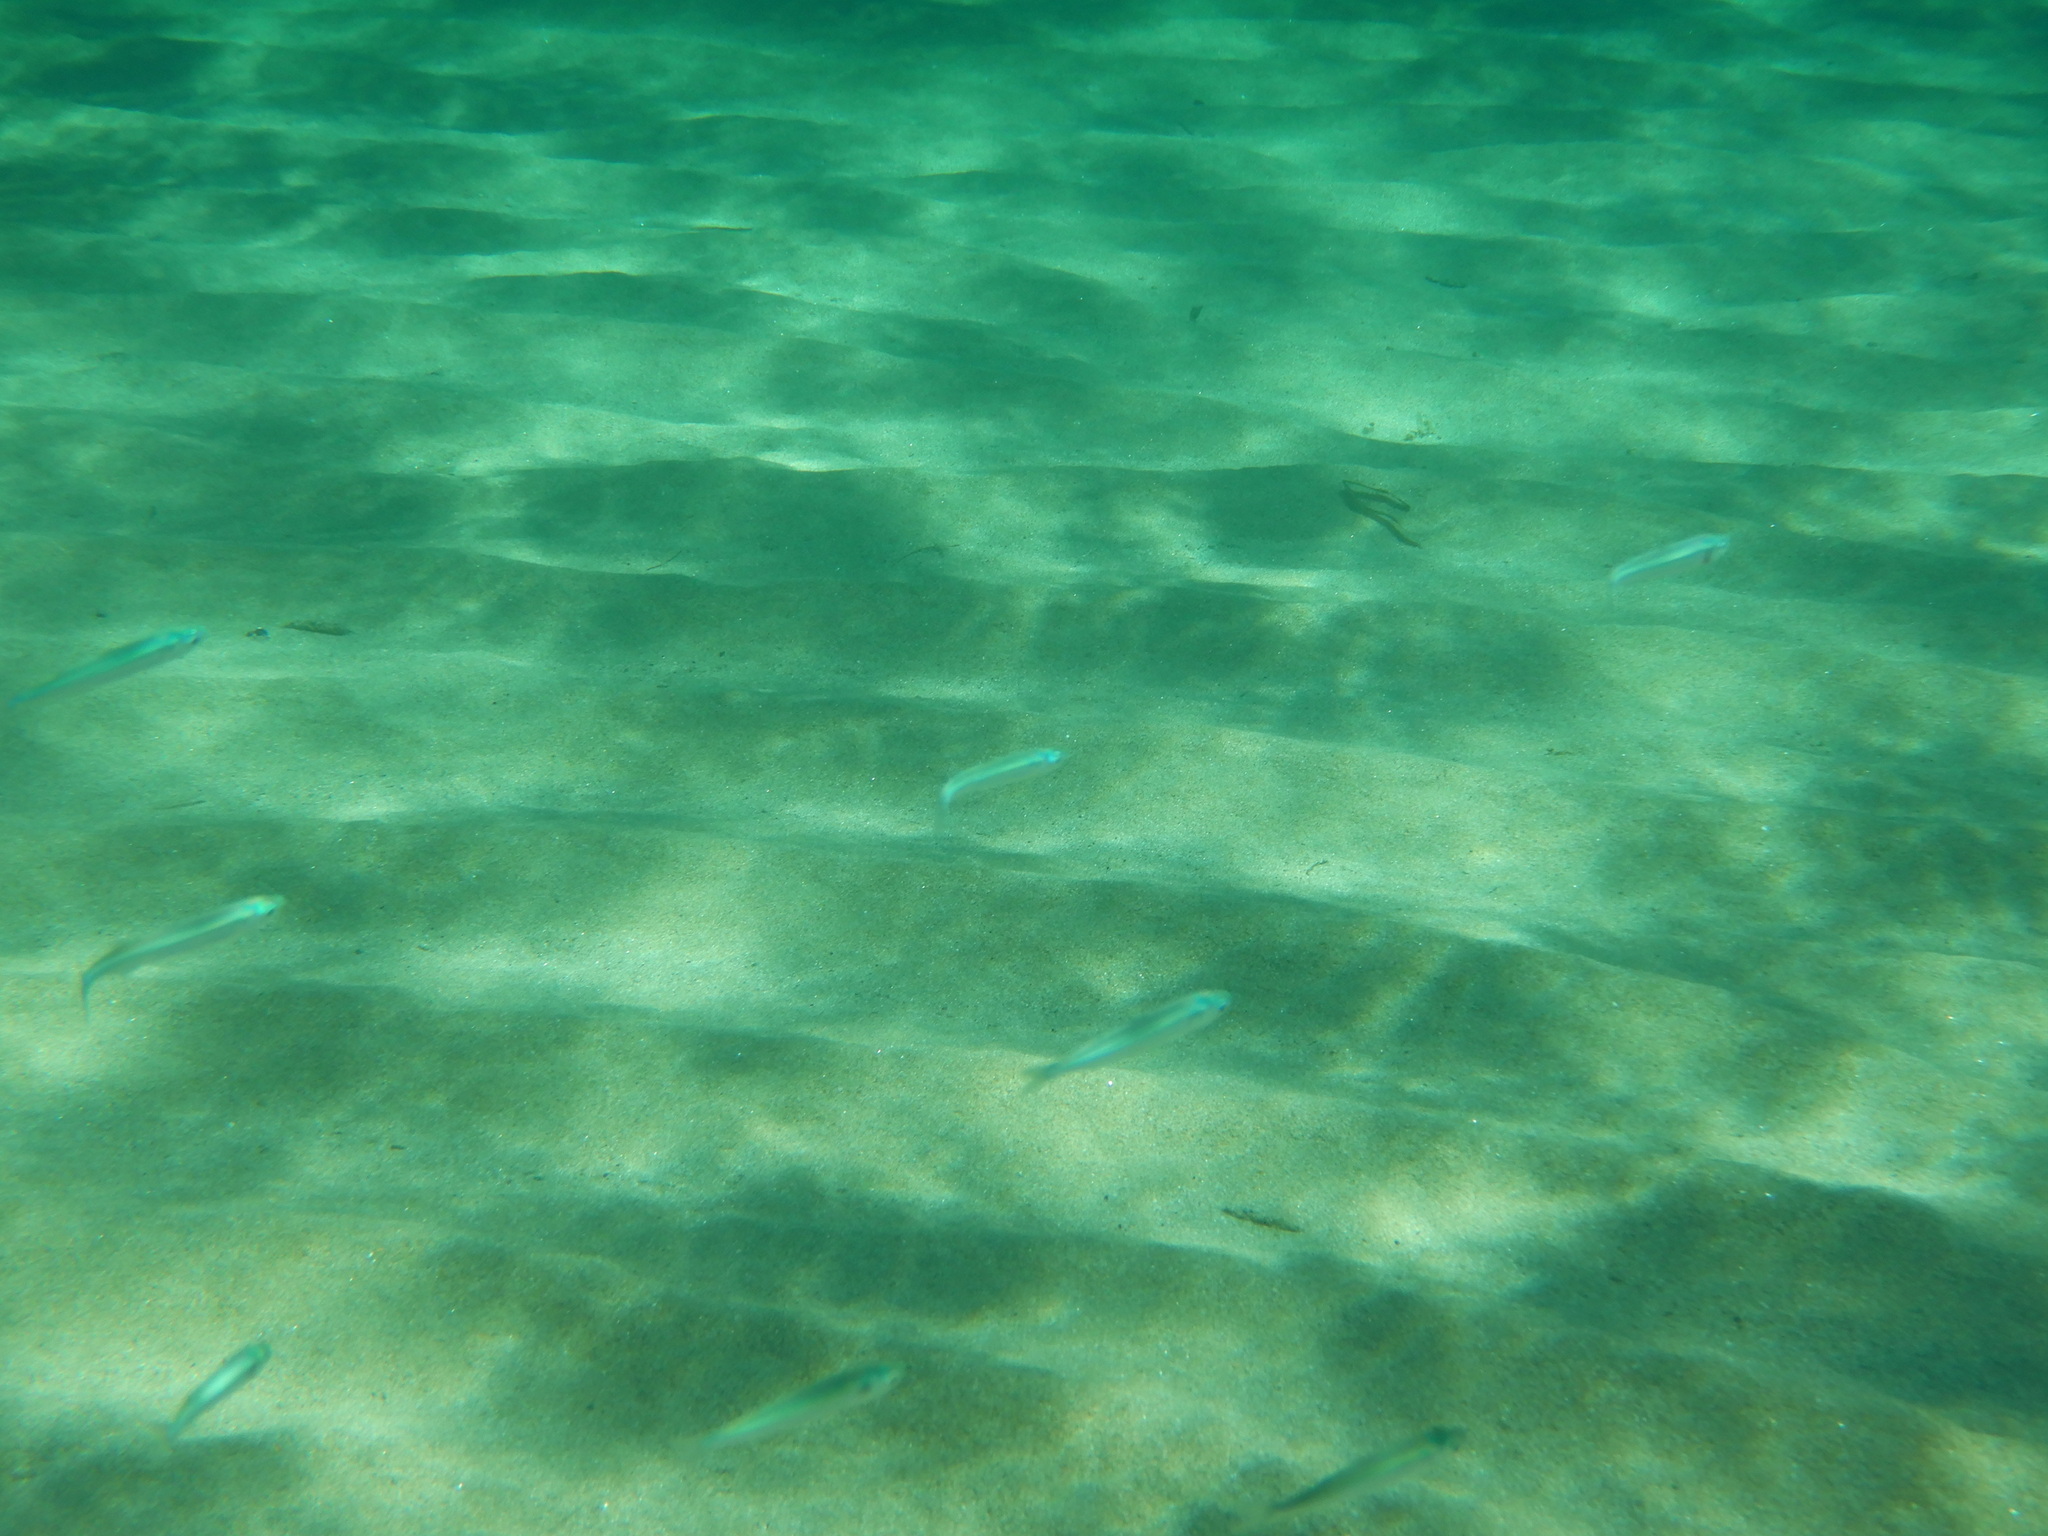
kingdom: Animalia
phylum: Chordata
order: Atheriniformes
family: Atherinidae
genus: Atherina
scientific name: Atherina
